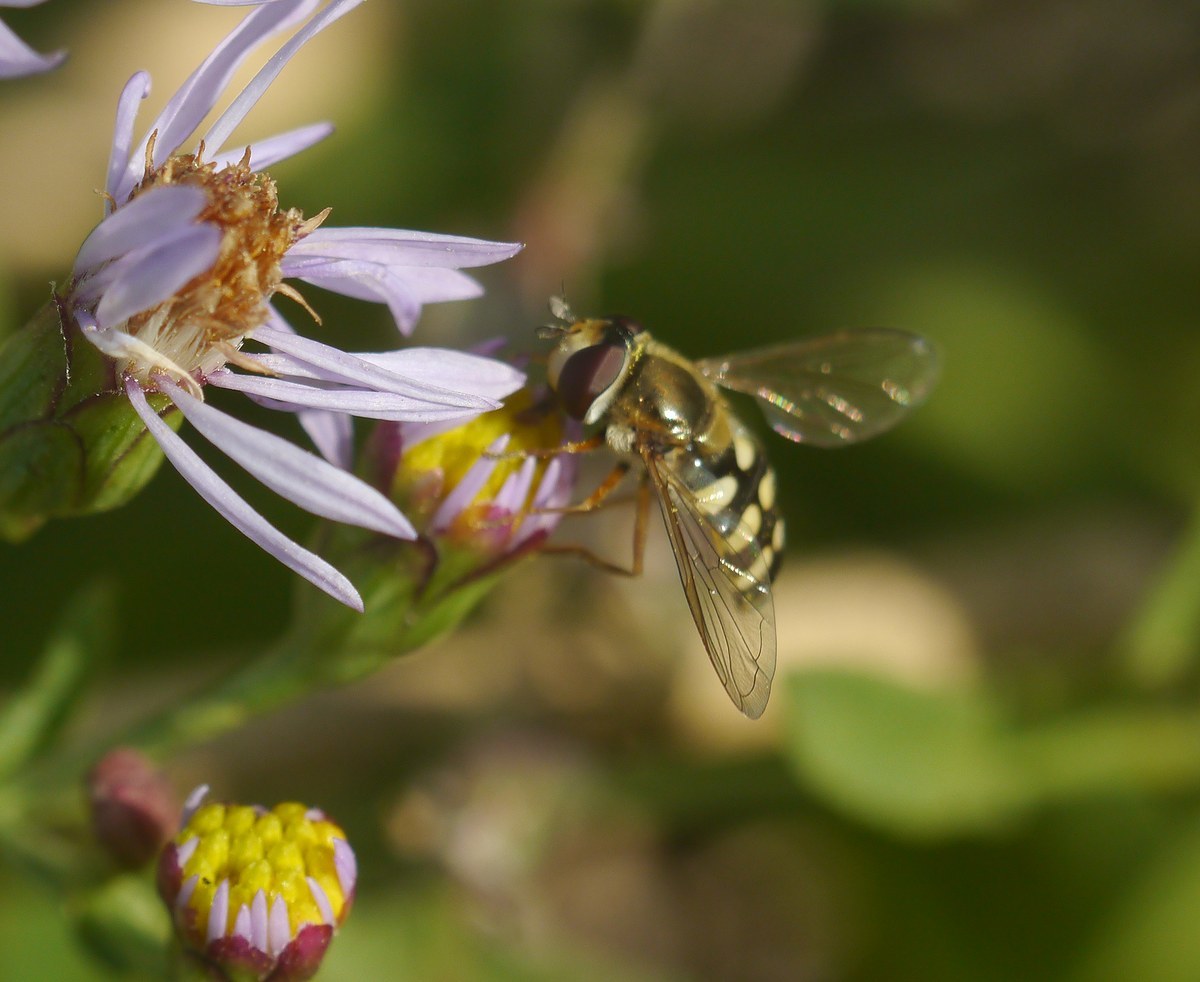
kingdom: Animalia
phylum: Arthropoda
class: Insecta
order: Diptera
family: Syrphidae
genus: Eupeodes
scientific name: Eupeodes corollae
